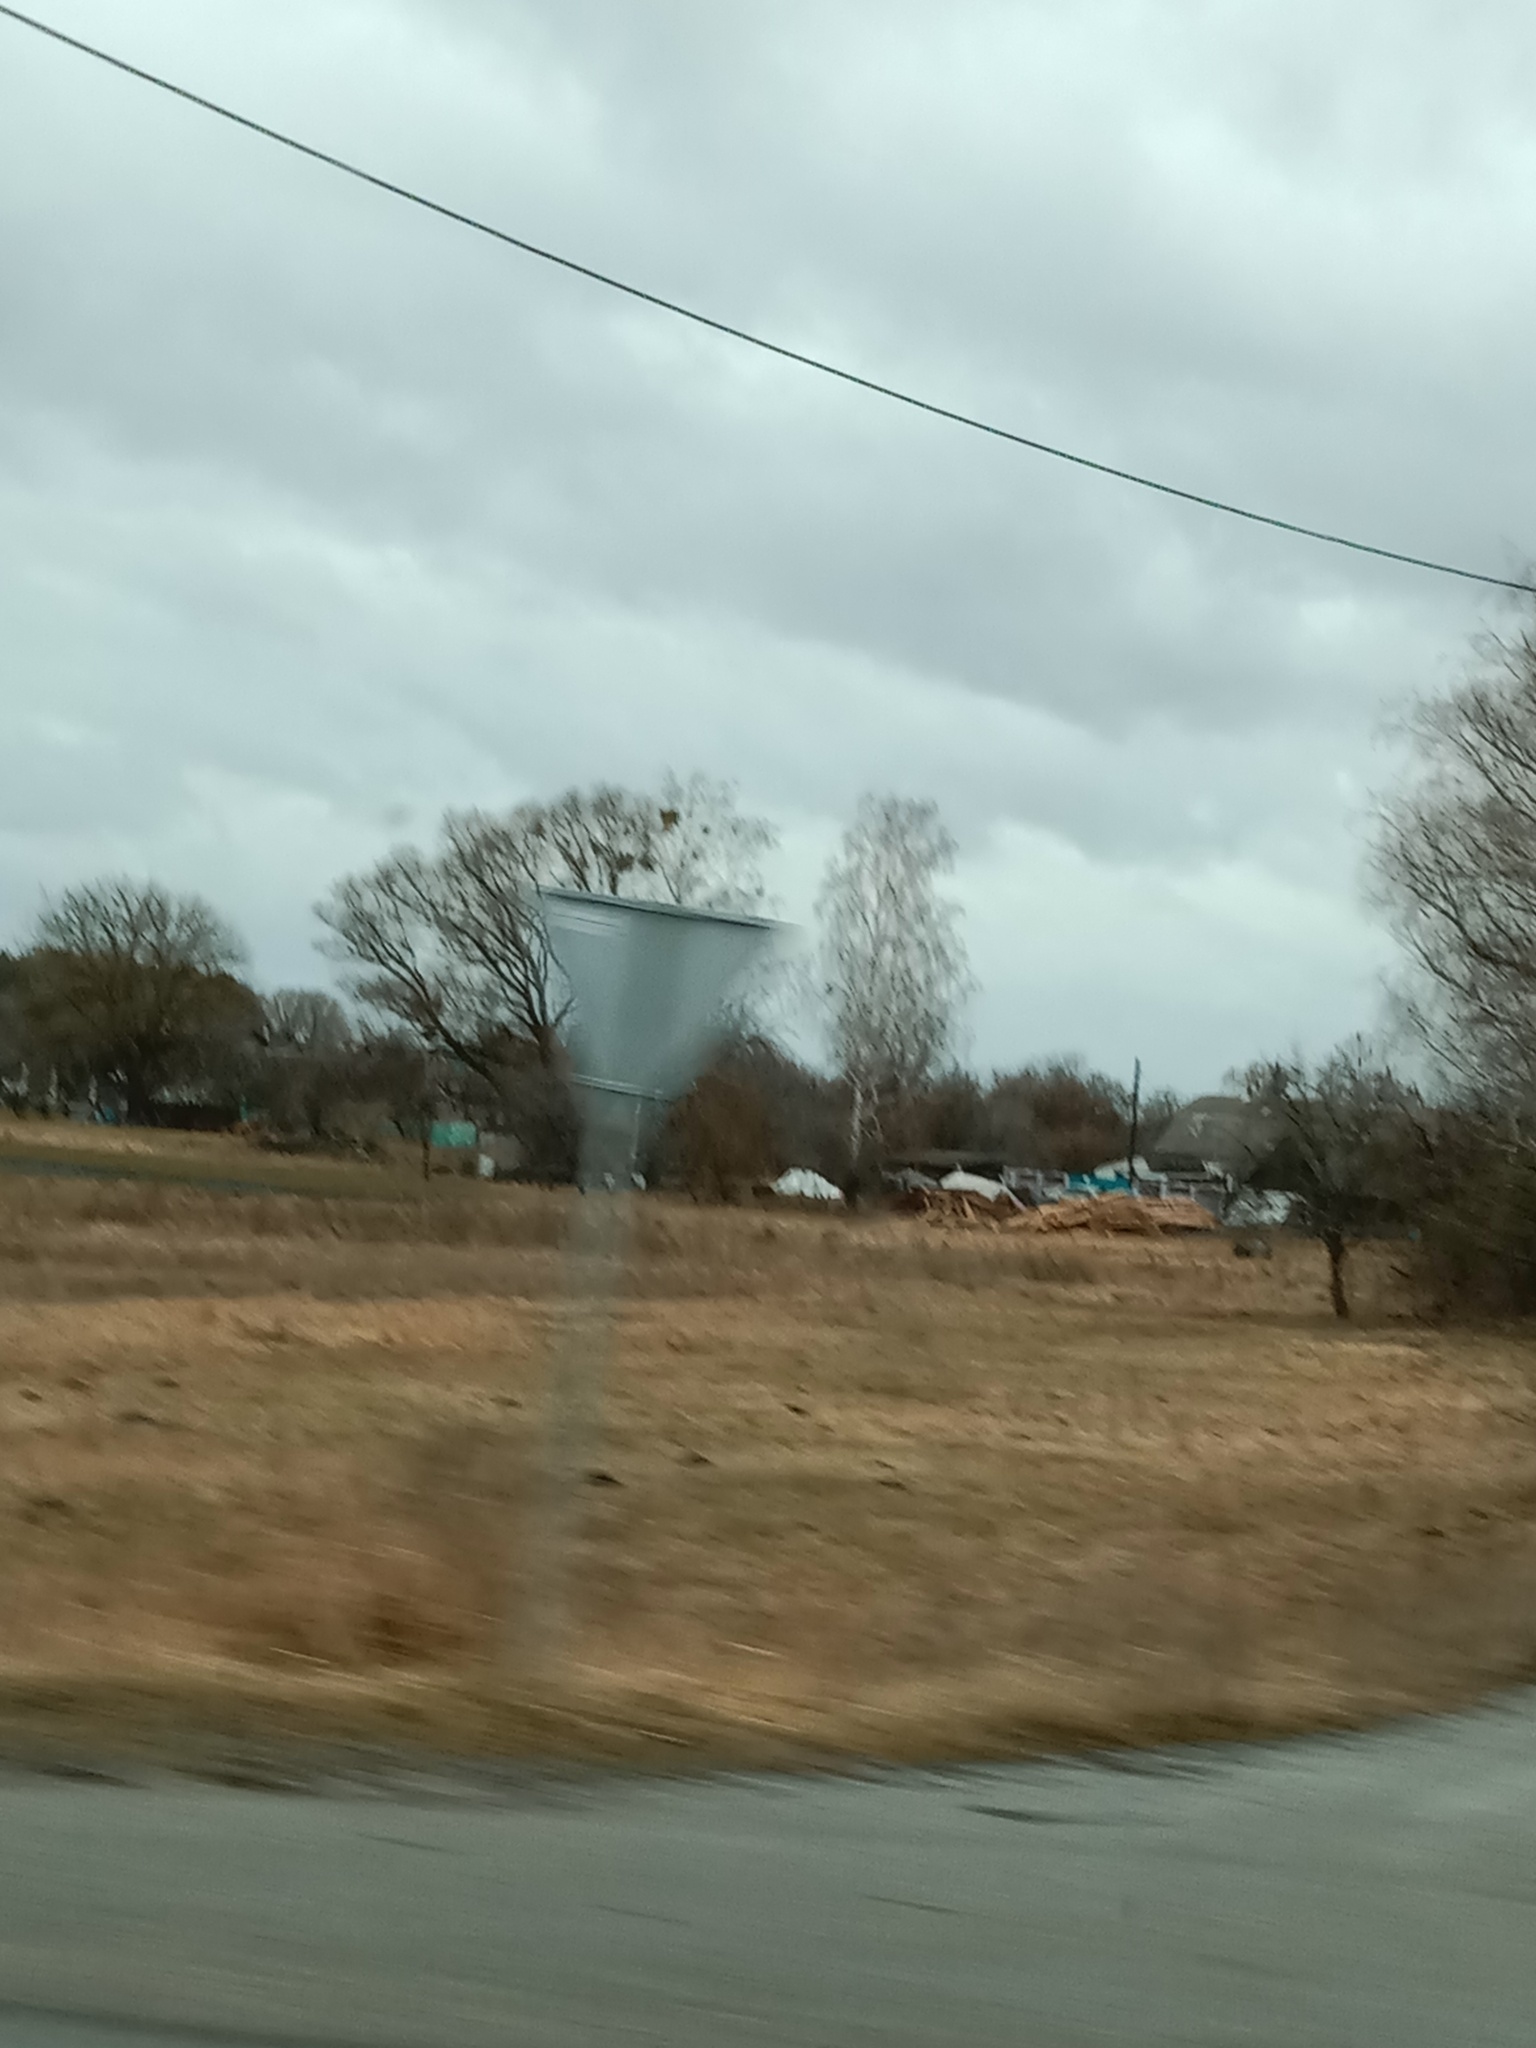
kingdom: Plantae
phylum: Tracheophyta
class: Magnoliopsida
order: Santalales
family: Viscaceae
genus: Viscum
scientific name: Viscum album
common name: Mistletoe
